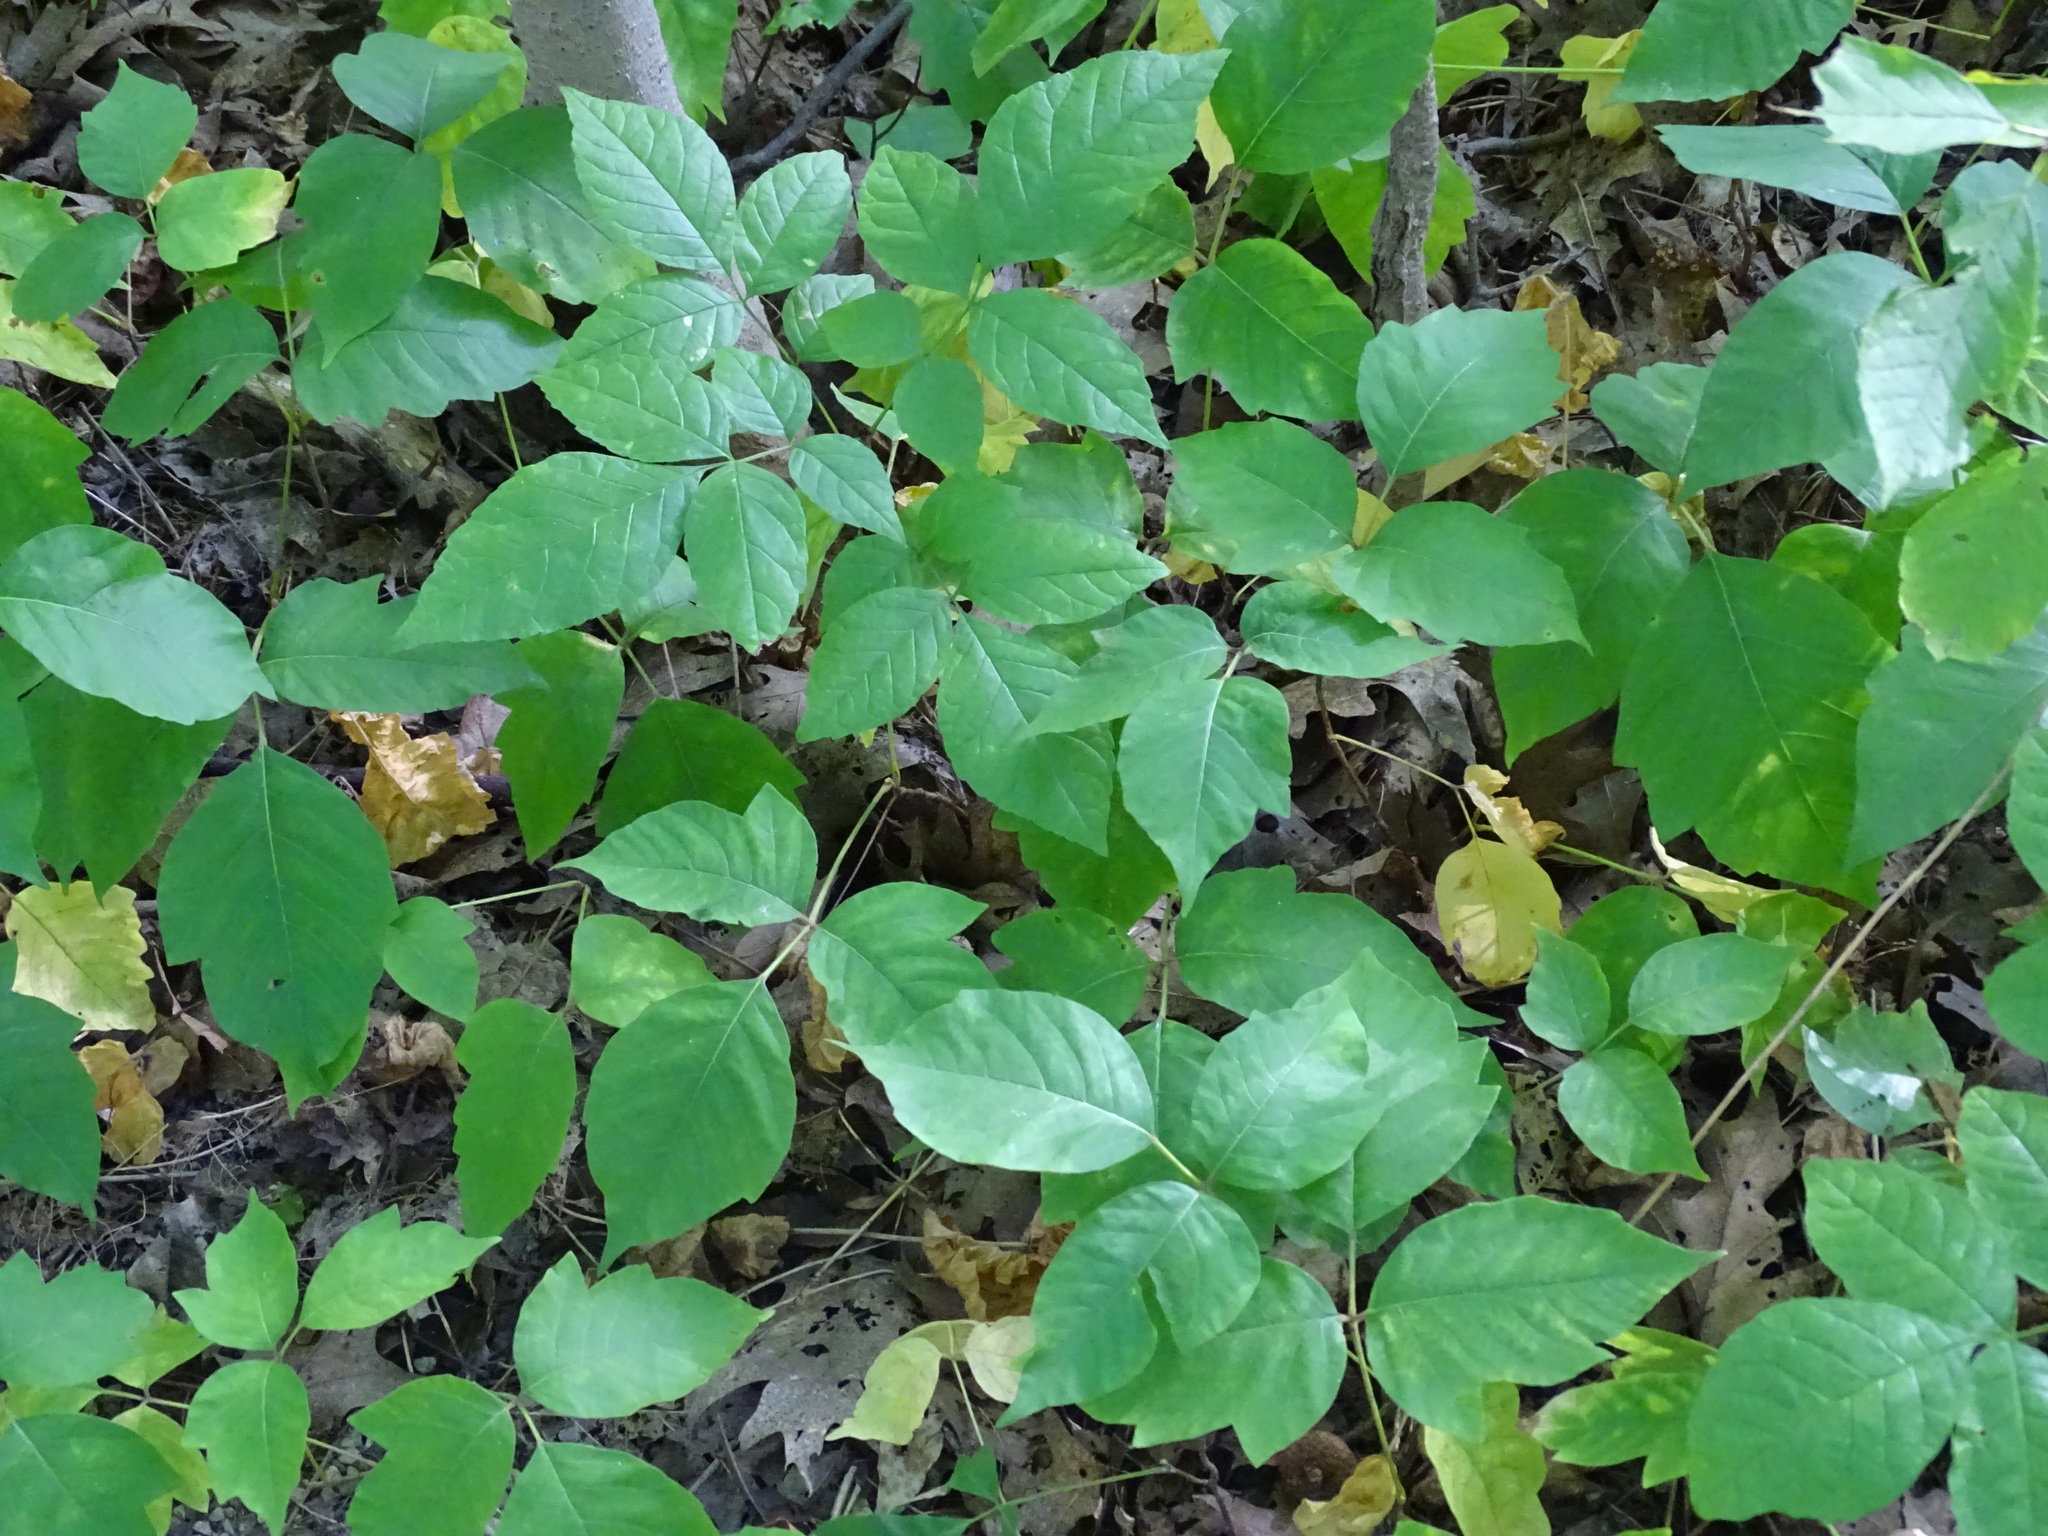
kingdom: Plantae
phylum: Tracheophyta
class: Magnoliopsida
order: Sapindales
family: Anacardiaceae
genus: Toxicodendron
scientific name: Toxicodendron rydbergii
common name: Rydberg's poison-ivy
